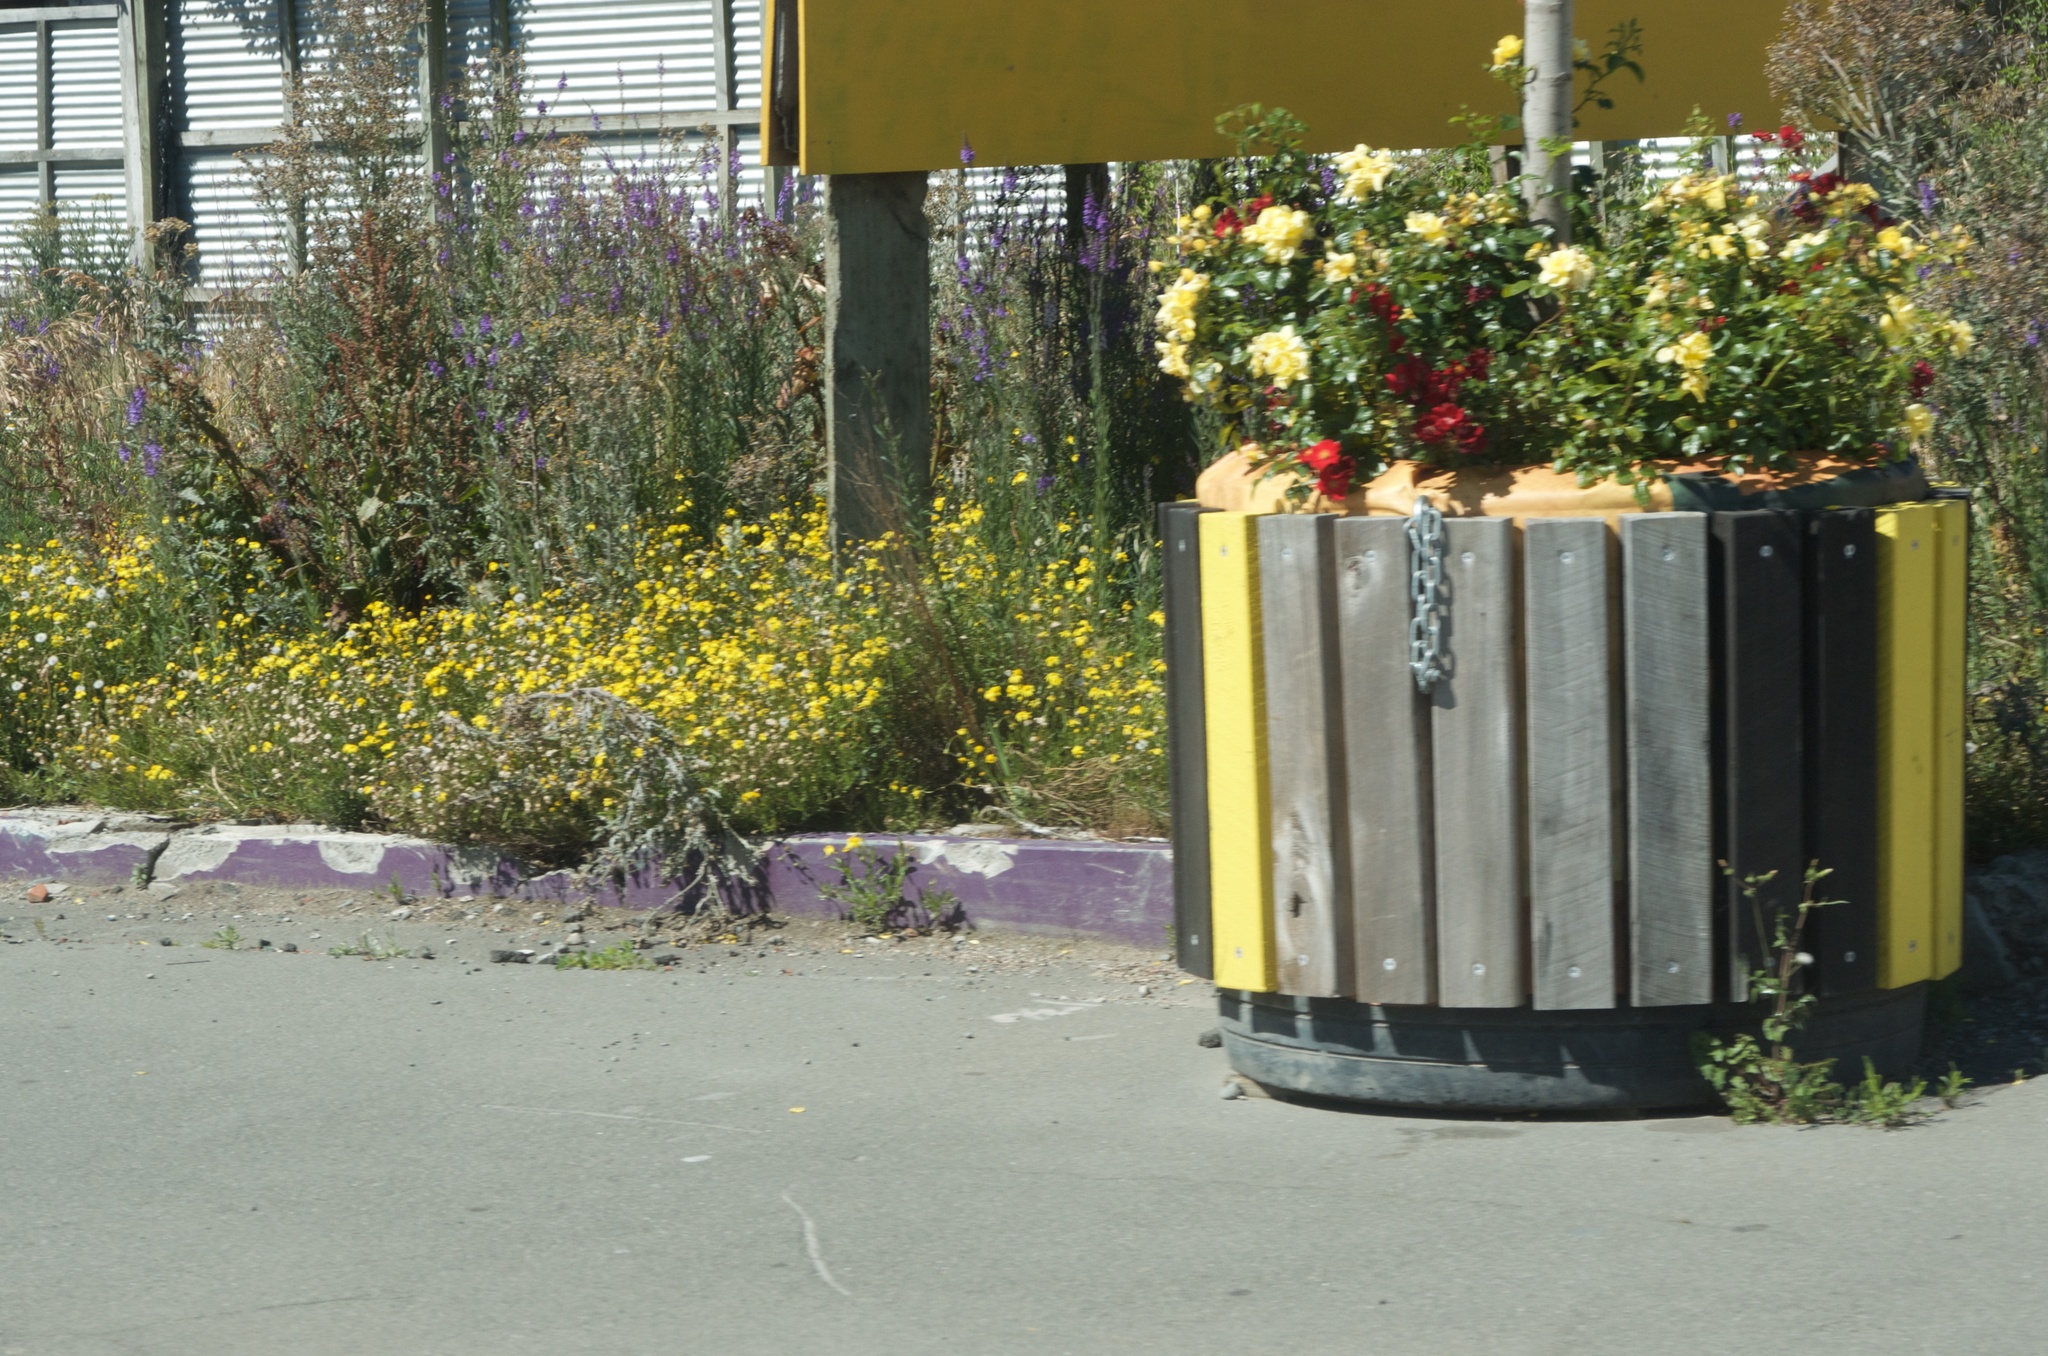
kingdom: Plantae
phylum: Tracheophyta
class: Magnoliopsida
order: Asterales
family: Asteraceae
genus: Senecio
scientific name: Senecio skirrhodon
